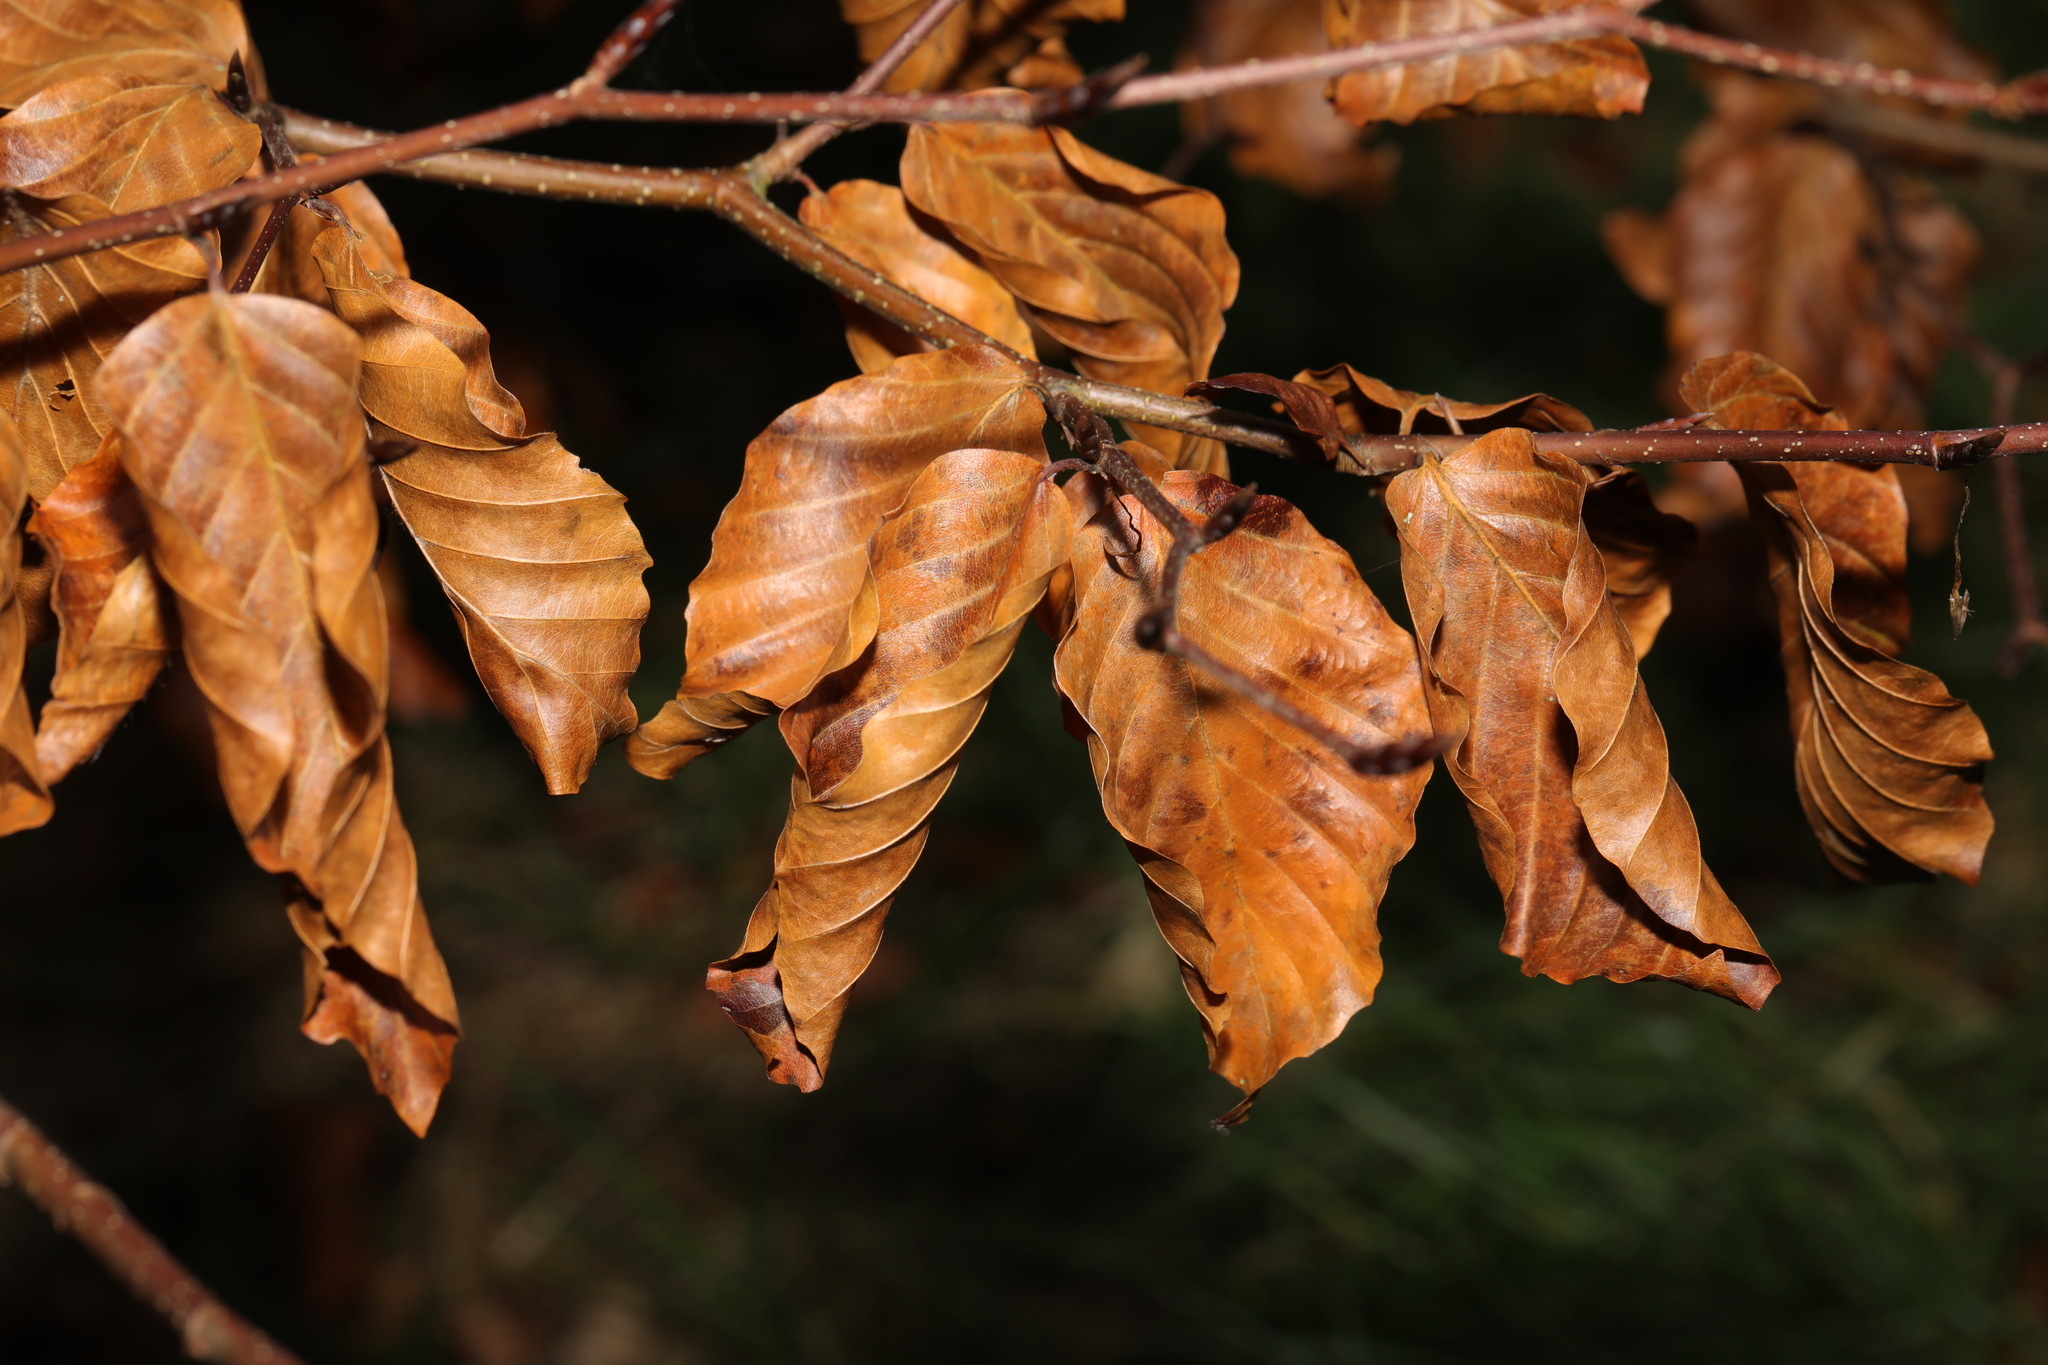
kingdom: Plantae
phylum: Tracheophyta
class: Magnoliopsida
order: Fagales
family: Fagaceae
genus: Fagus
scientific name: Fagus sylvatica
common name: Beech
